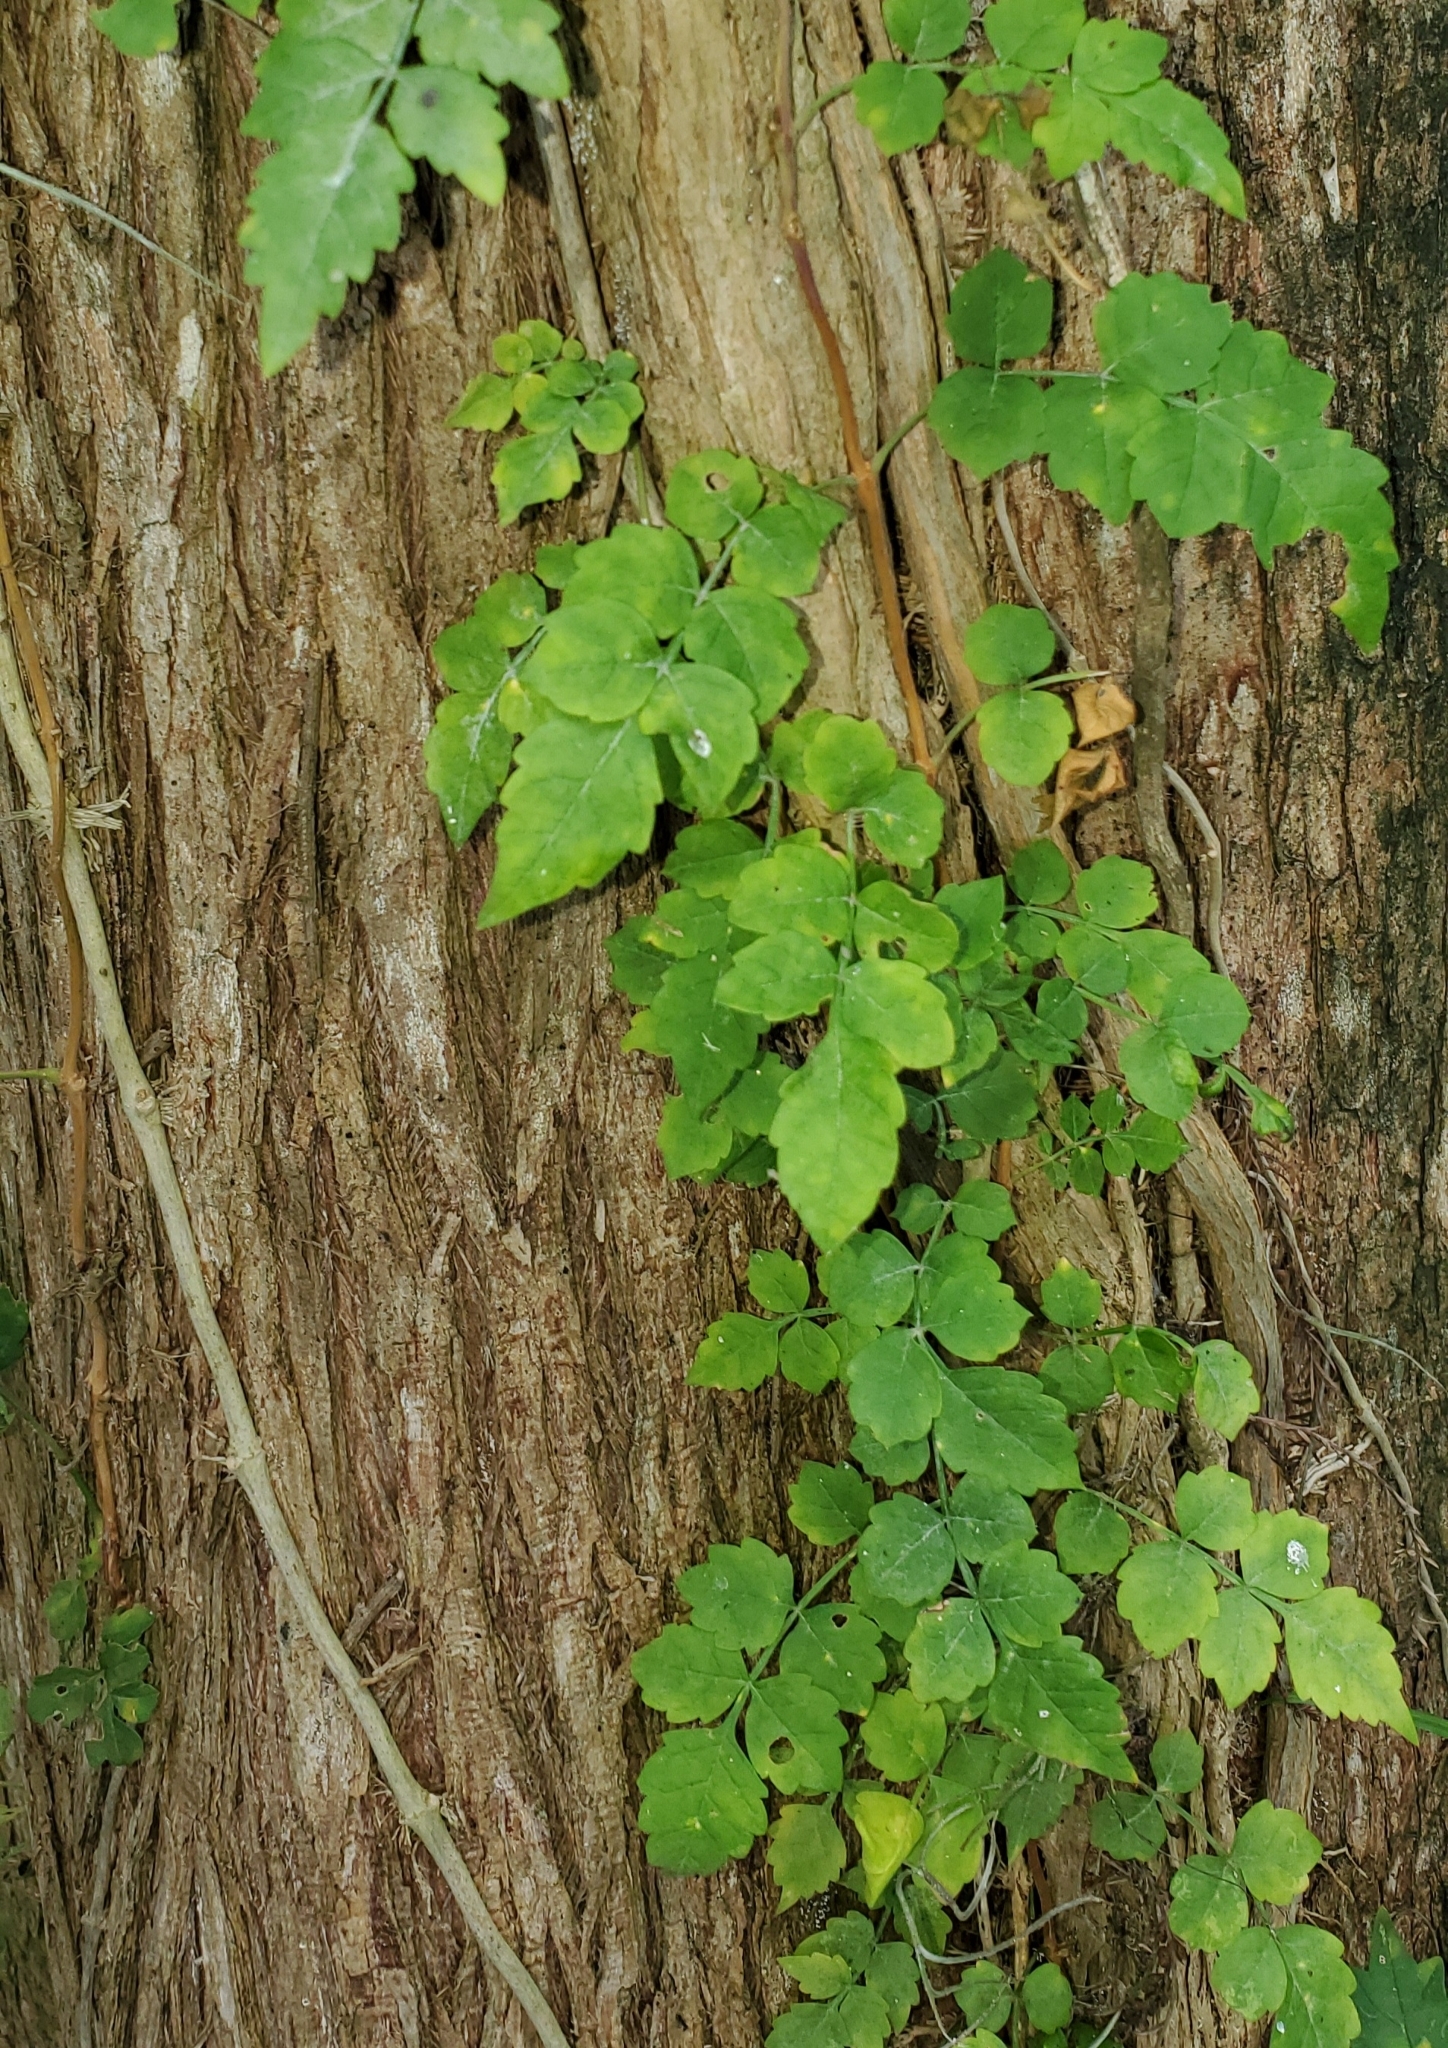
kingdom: Plantae
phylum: Tracheophyta
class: Magnoliopsida
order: Lamiales
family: Bignoniaceae
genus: Campsis
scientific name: Campsis radicans
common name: Trumpet-creeper
